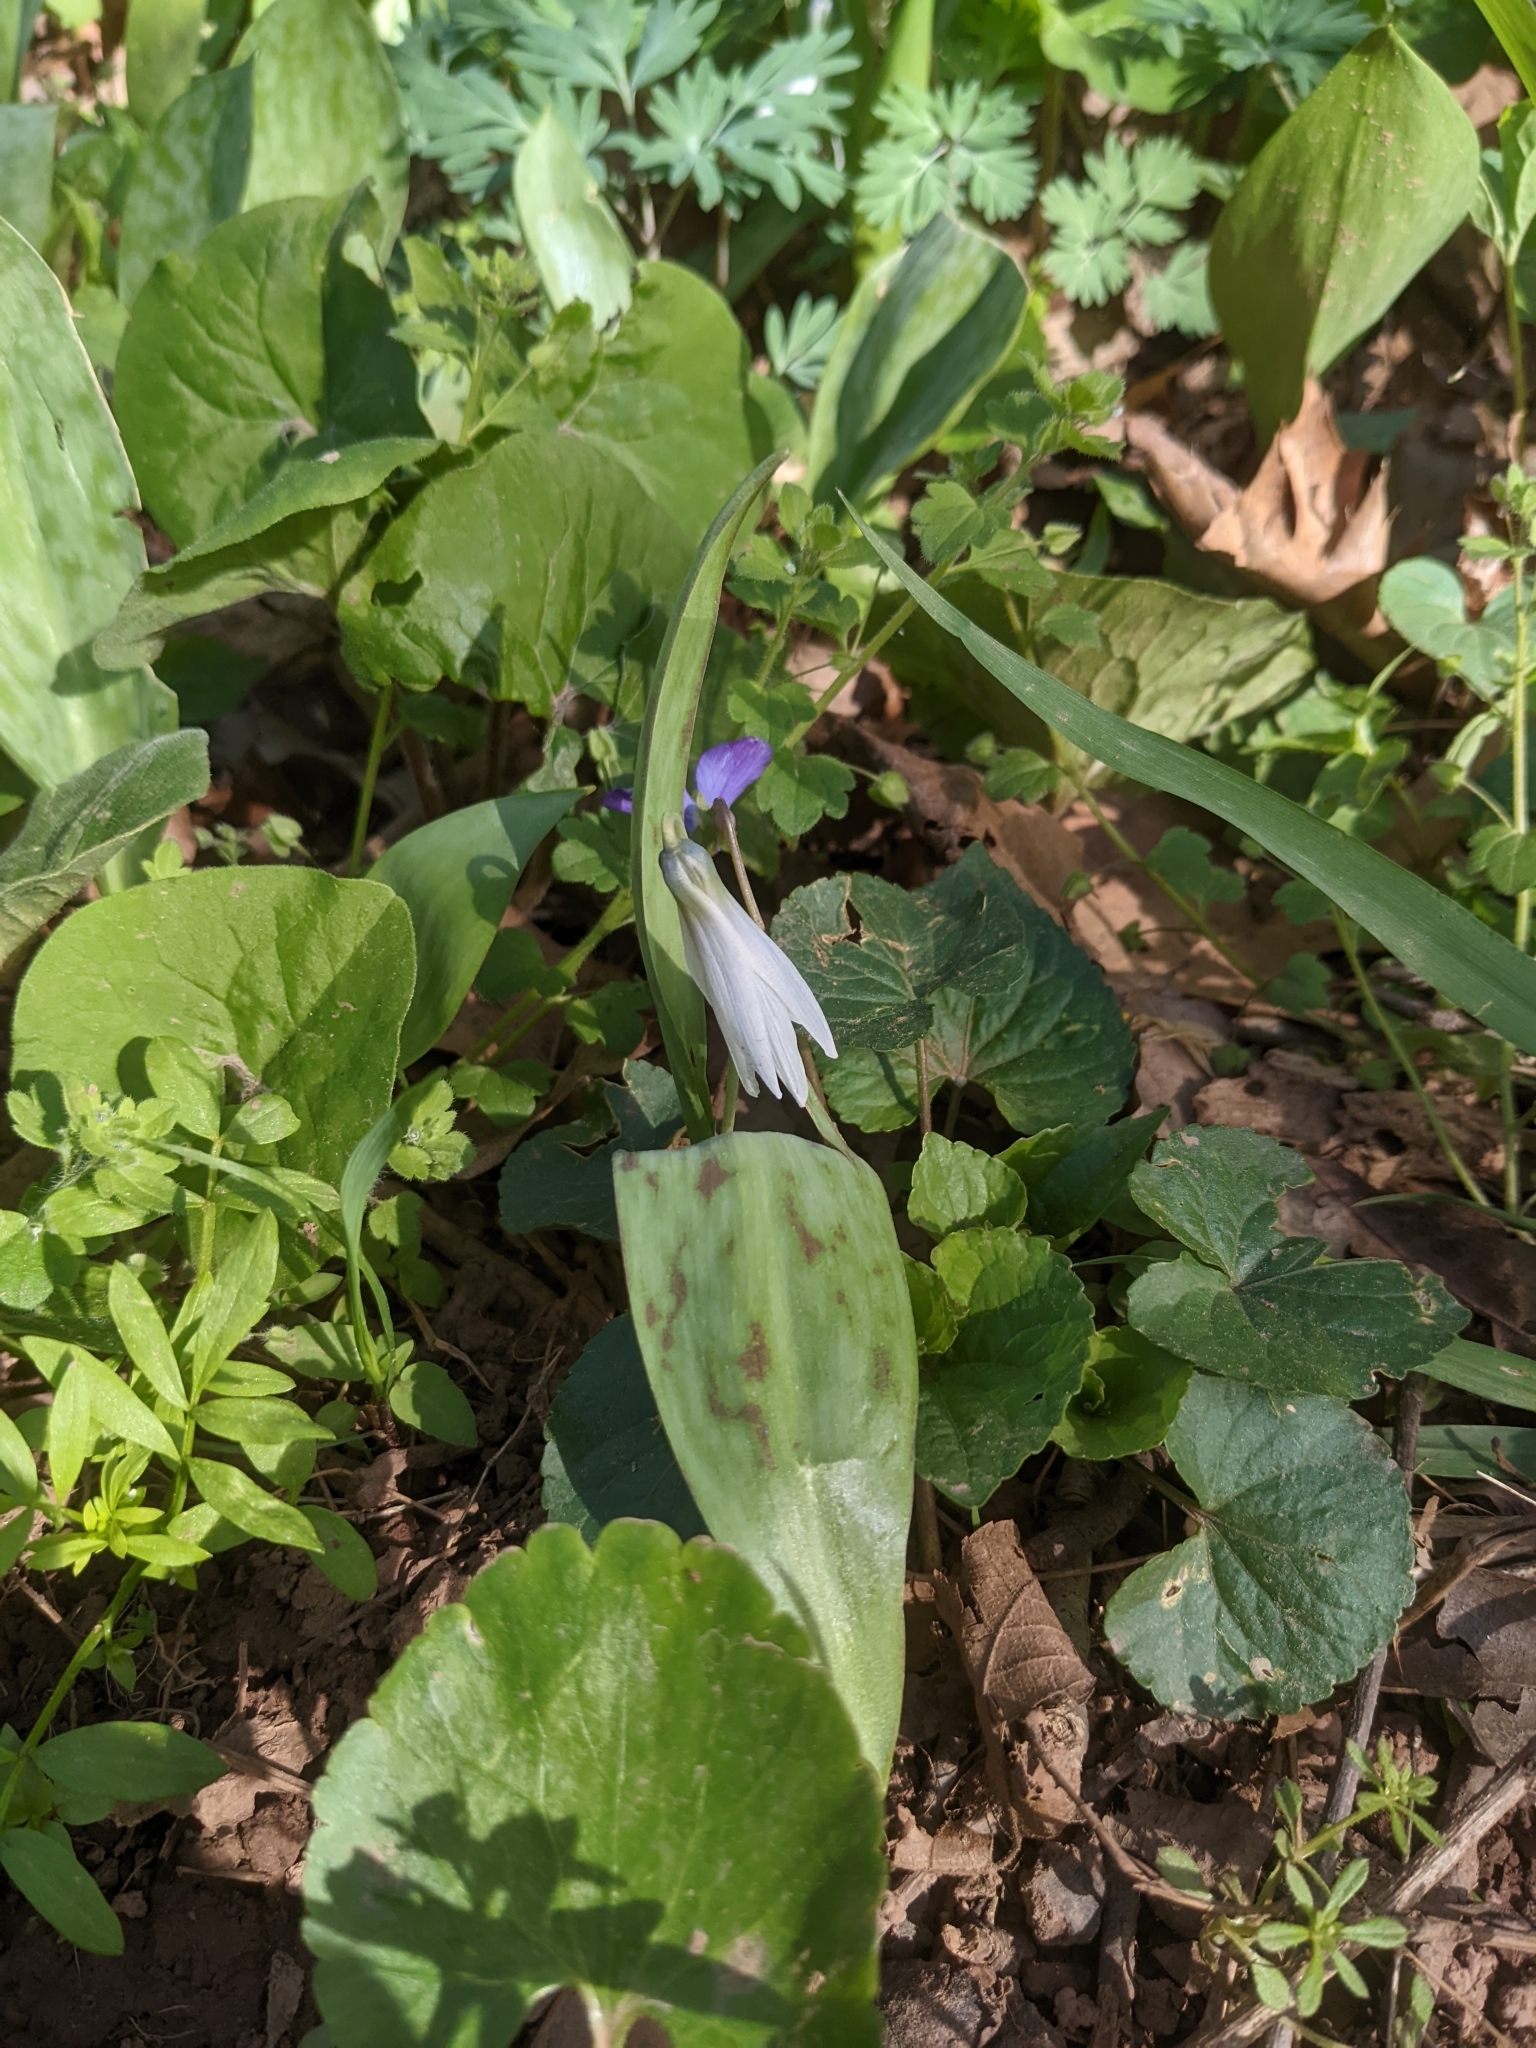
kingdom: Plantae
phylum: Tracheophyta
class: Liliopsida
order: Liliales
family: Liliaceae
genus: Erythronium
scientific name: Erythronium albidum
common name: White trout-lily
